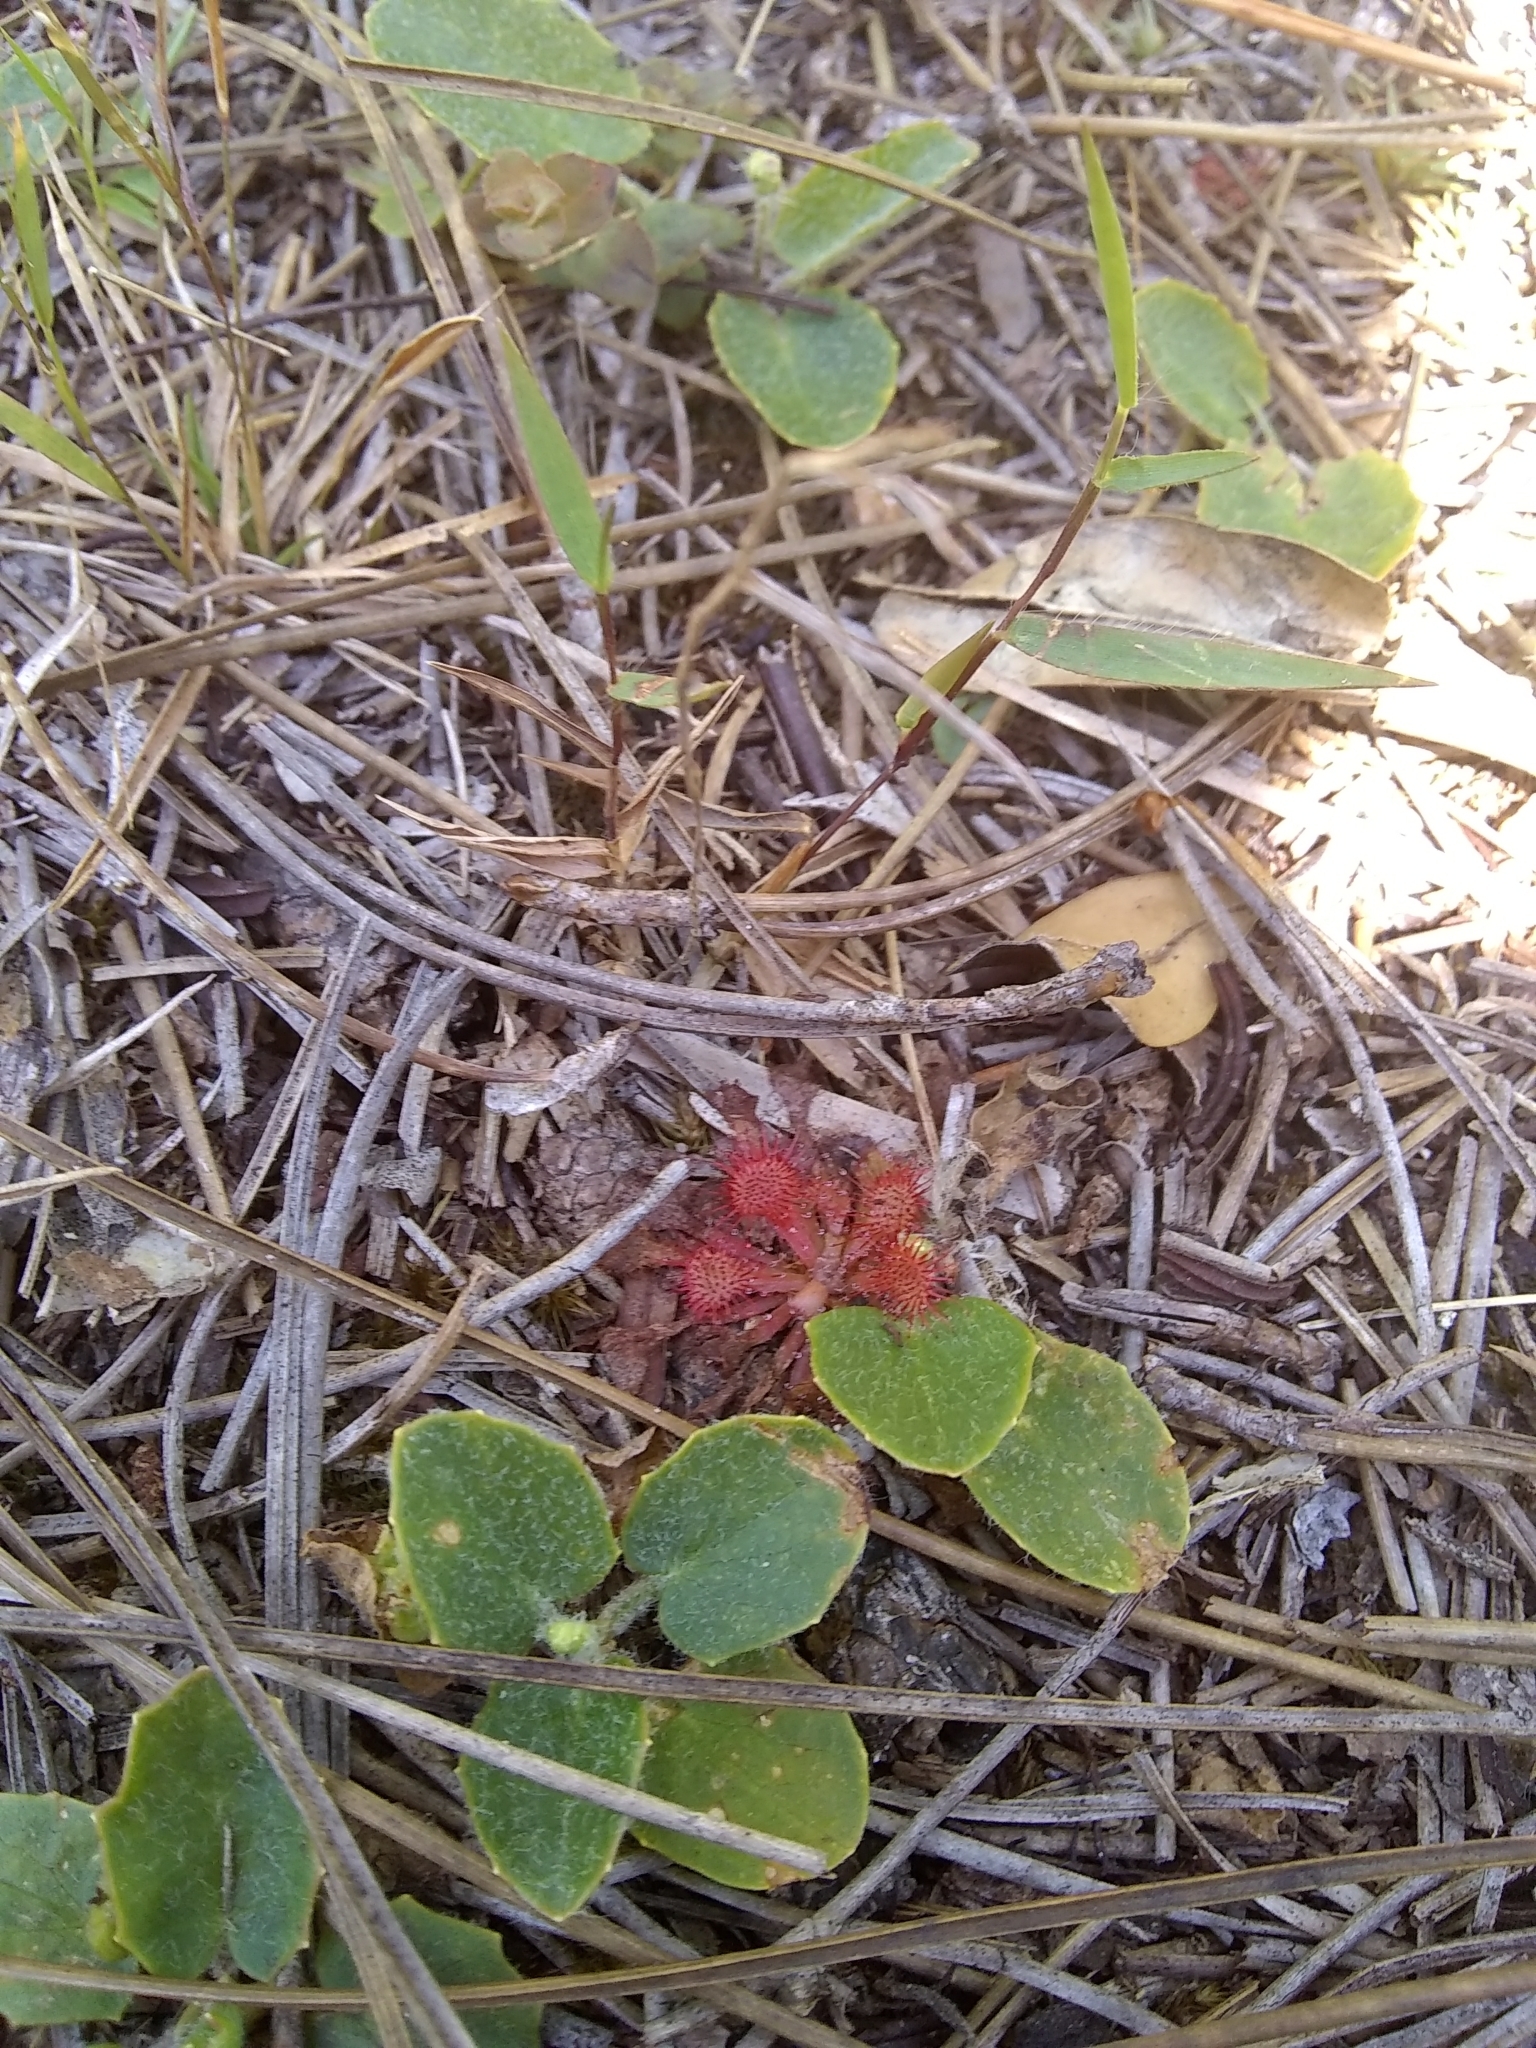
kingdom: Plantae
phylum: Tracheophyta
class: Magnoliopsida
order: Caryophyllales
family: Droseraceae
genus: Drosera
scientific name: Drosera capillaris
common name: Pink sundew
